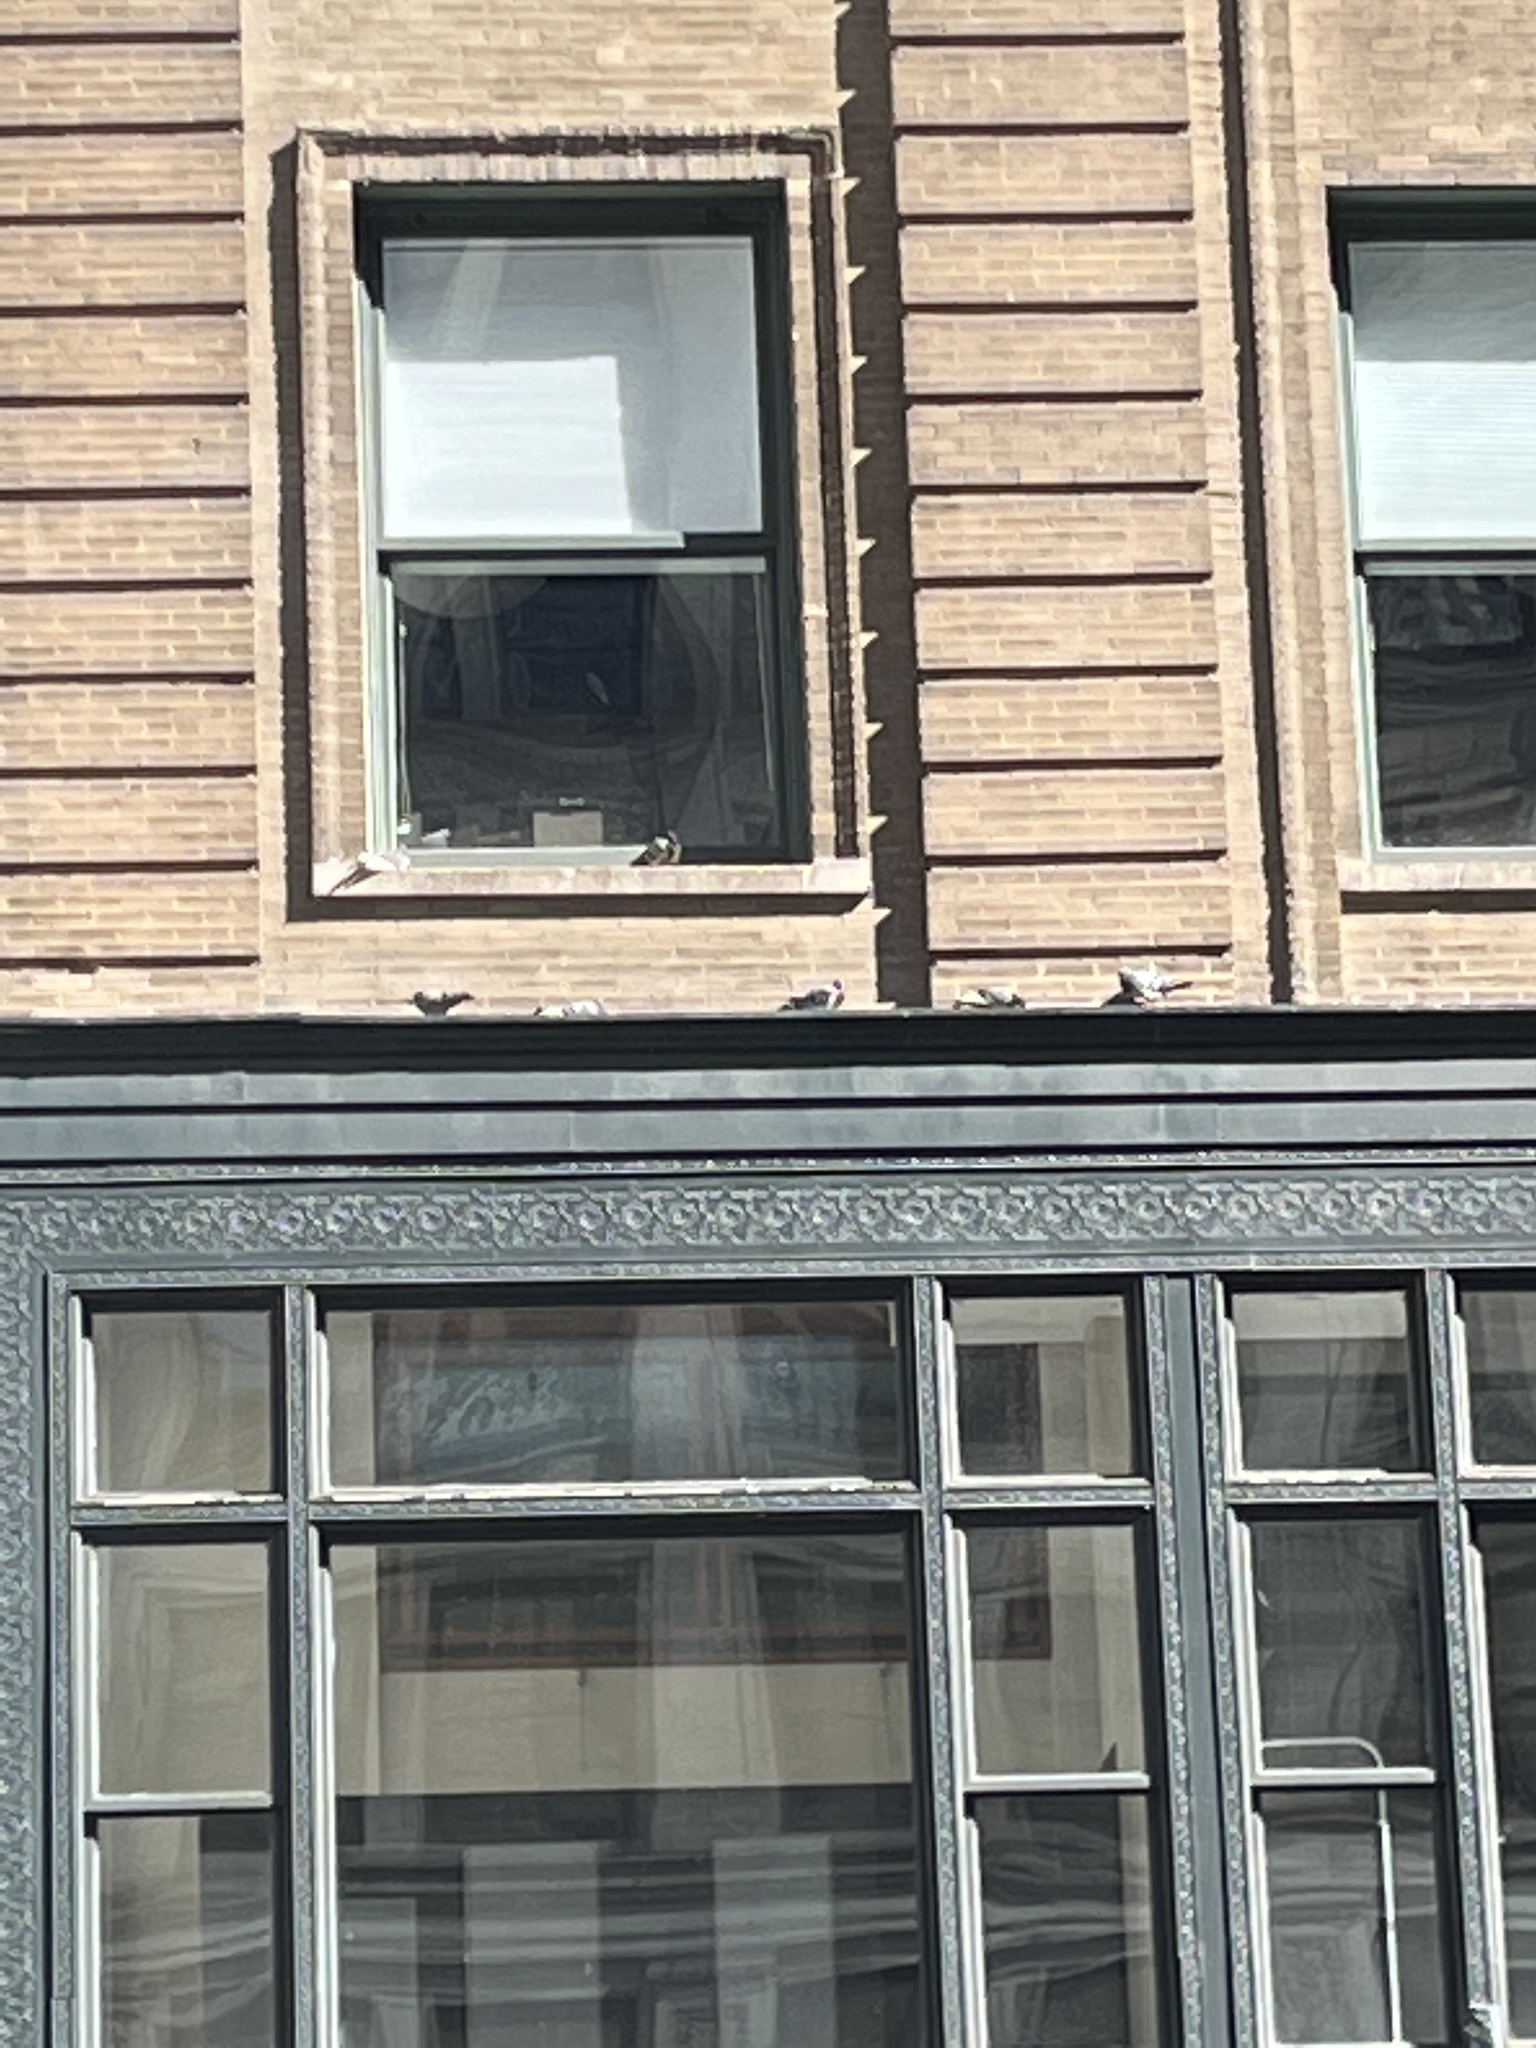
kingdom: Animalia
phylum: Chordata
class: Aves
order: Columbiformes
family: Columbidae
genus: Columba
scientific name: Columba livia
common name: Rock pigeon
